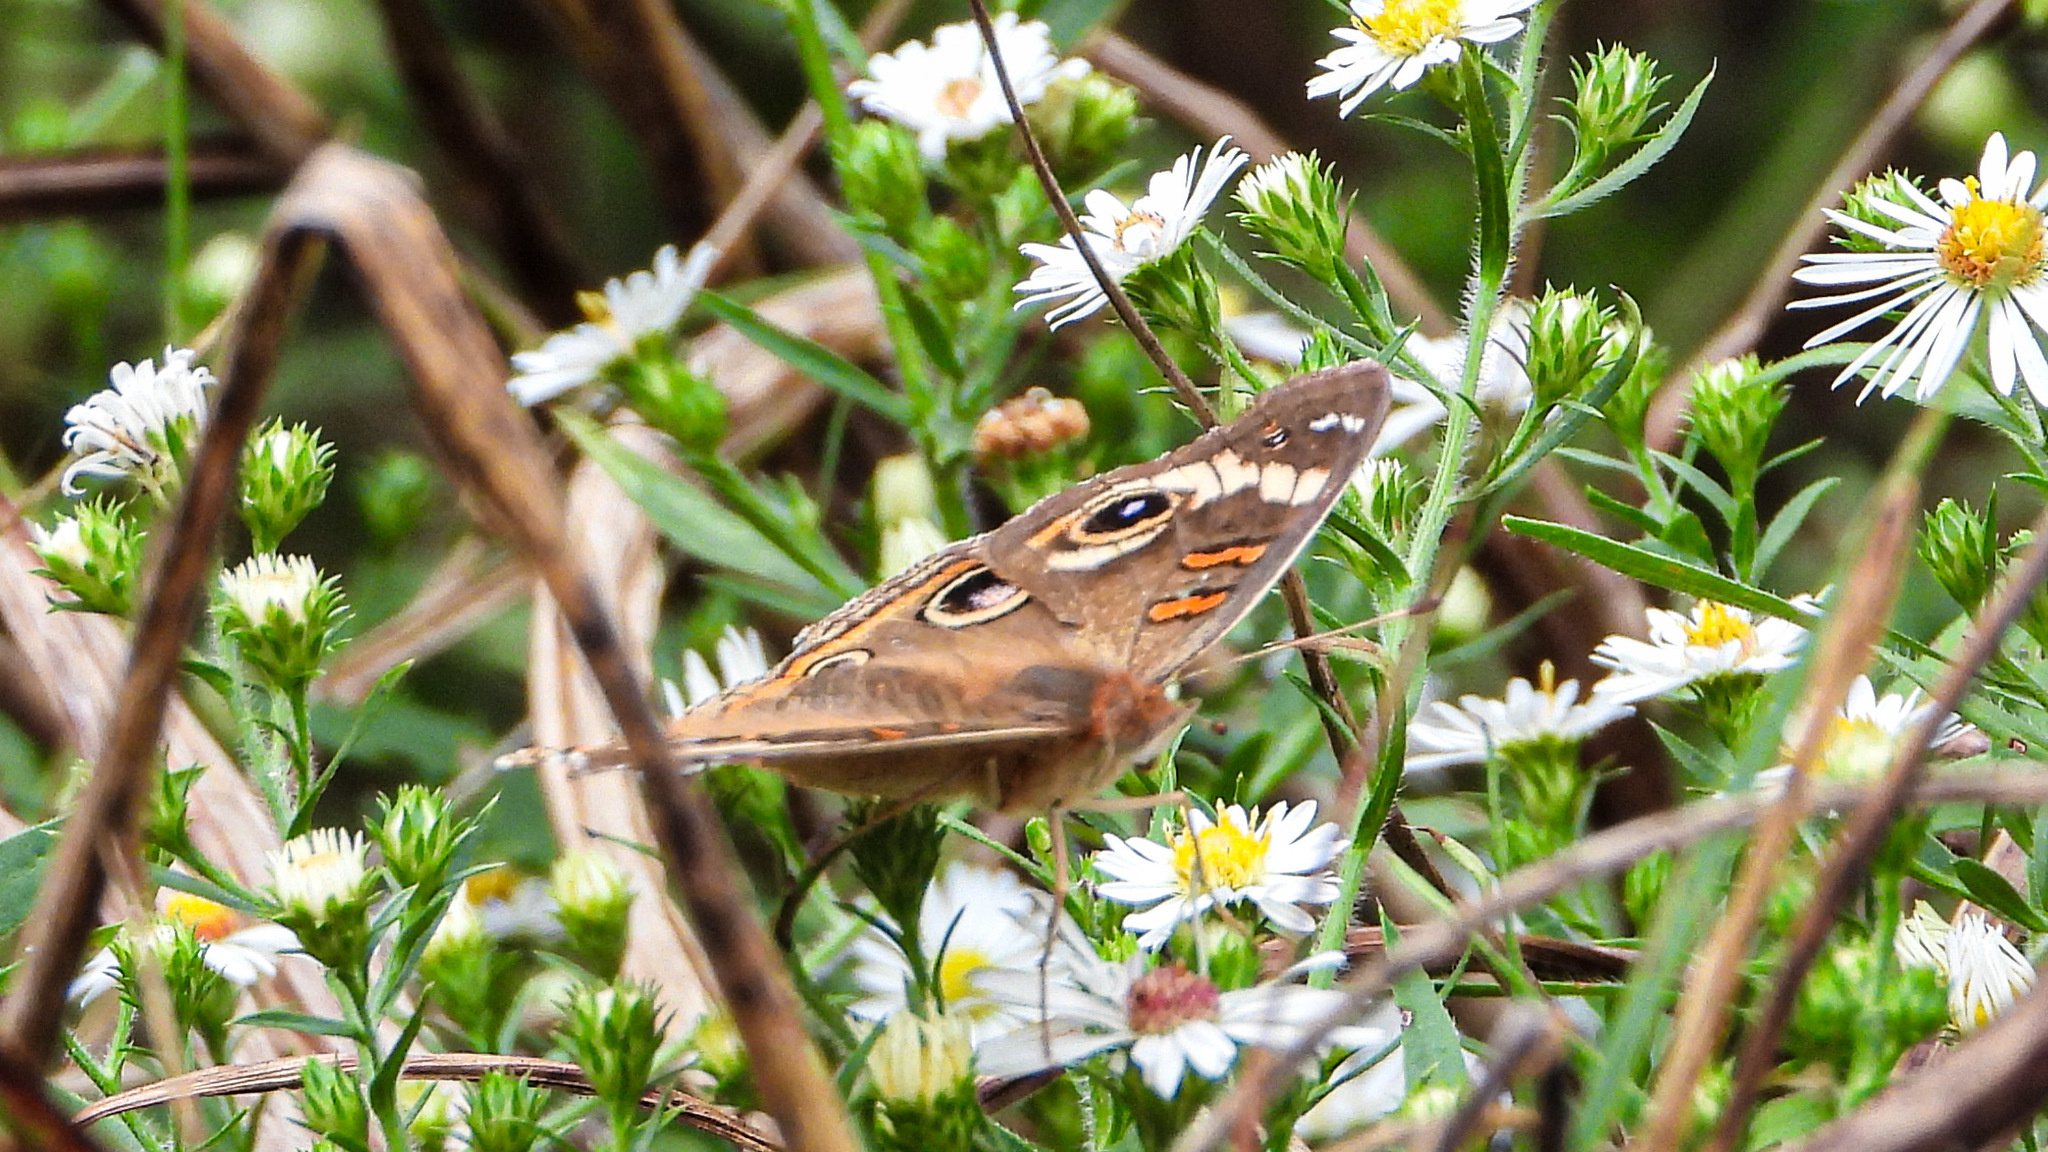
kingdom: Animalia
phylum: Arthropoda
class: Insecta
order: Lepidoptera
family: Nymphalidae
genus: Junonia
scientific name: Junonia coenia
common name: Common buckeye
